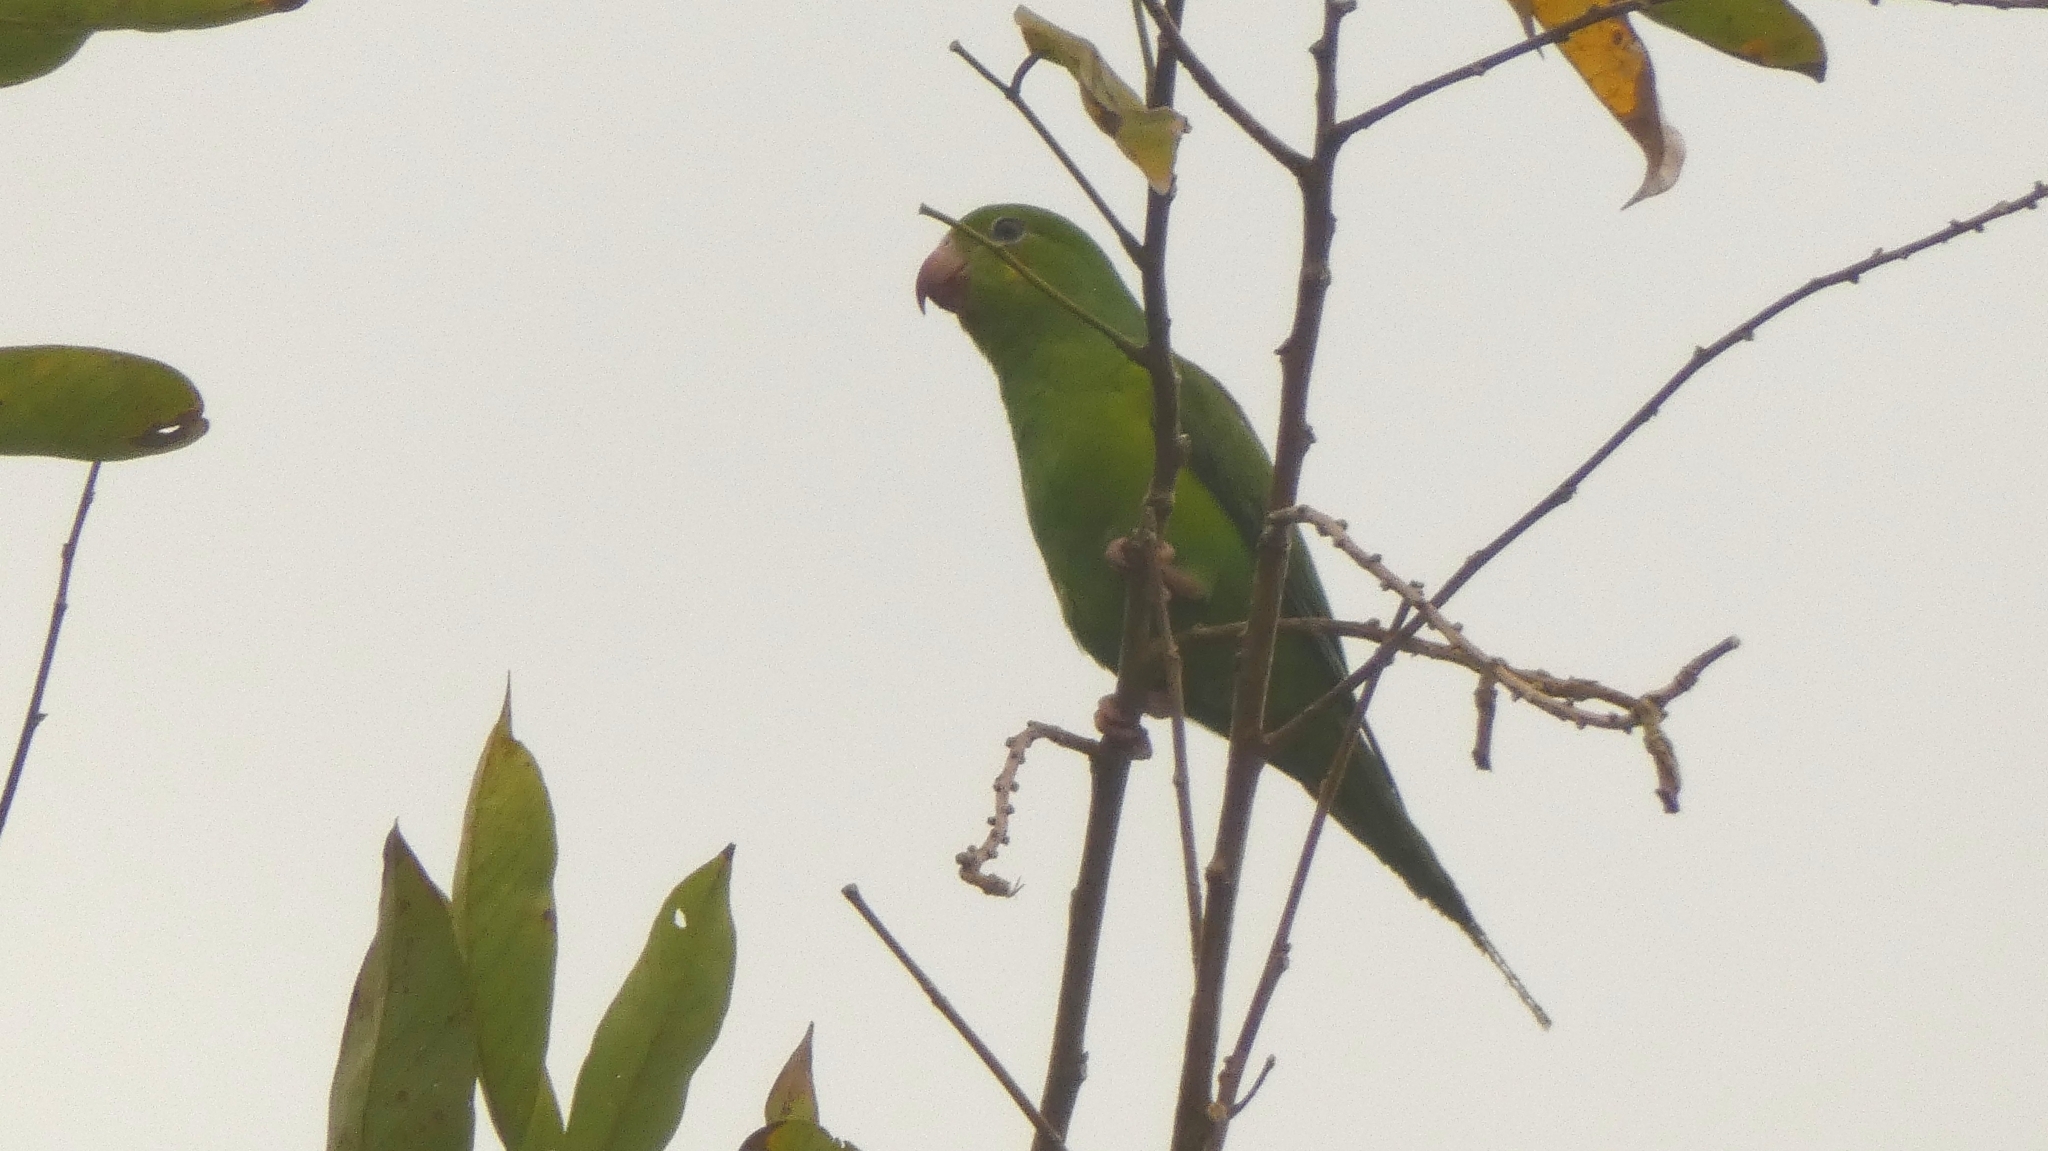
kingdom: Animalia
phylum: Chordata
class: Aves
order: Psittaciformes
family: Psittacidae
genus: Brotogeris
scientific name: Brotogeris tirica
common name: Plain parakeet
